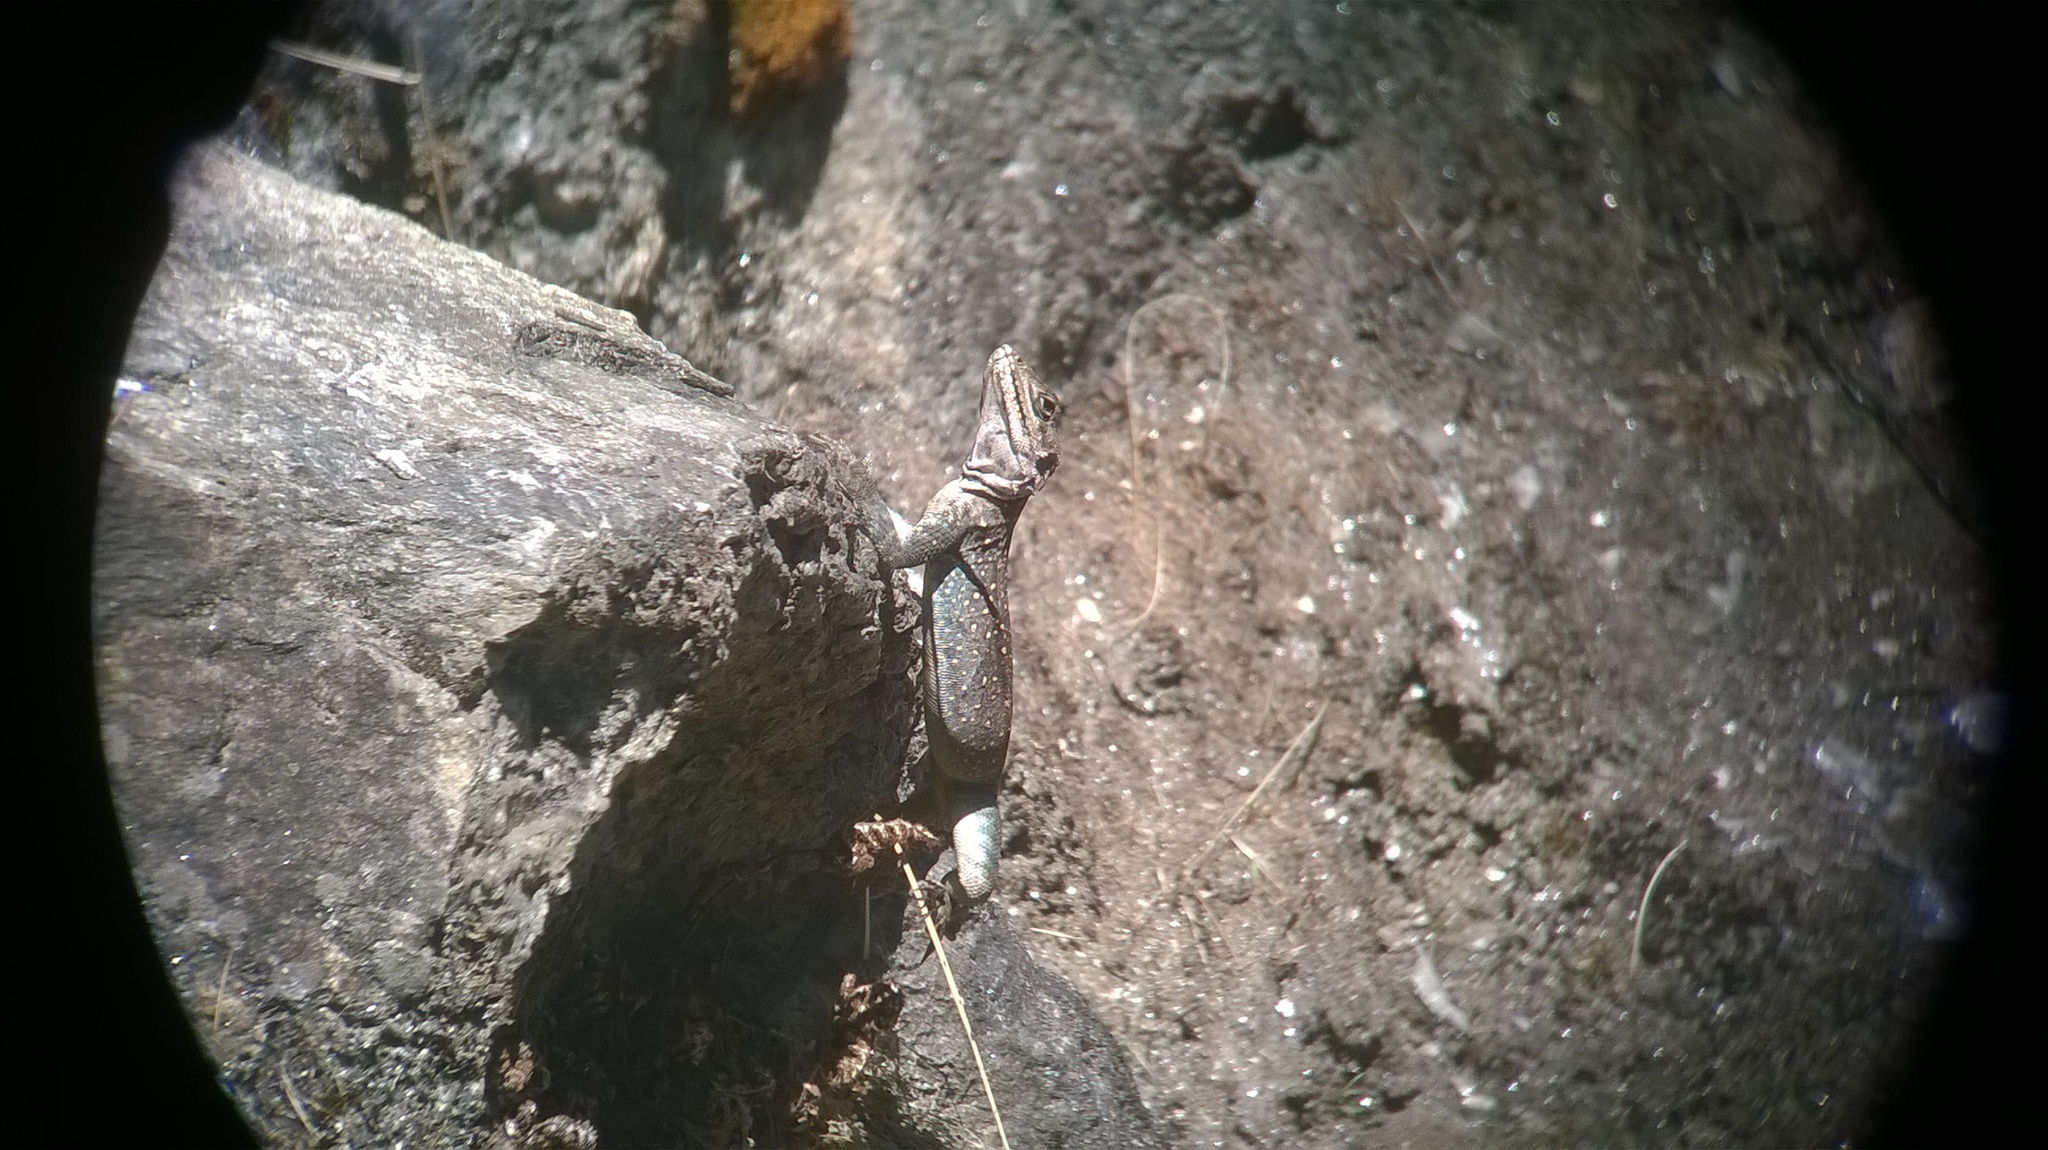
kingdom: Animalia
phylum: Chordata
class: Squamata
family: Agamidae
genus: Laudakia
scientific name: Laudakia tuberculata
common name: Kashmir rock agama
